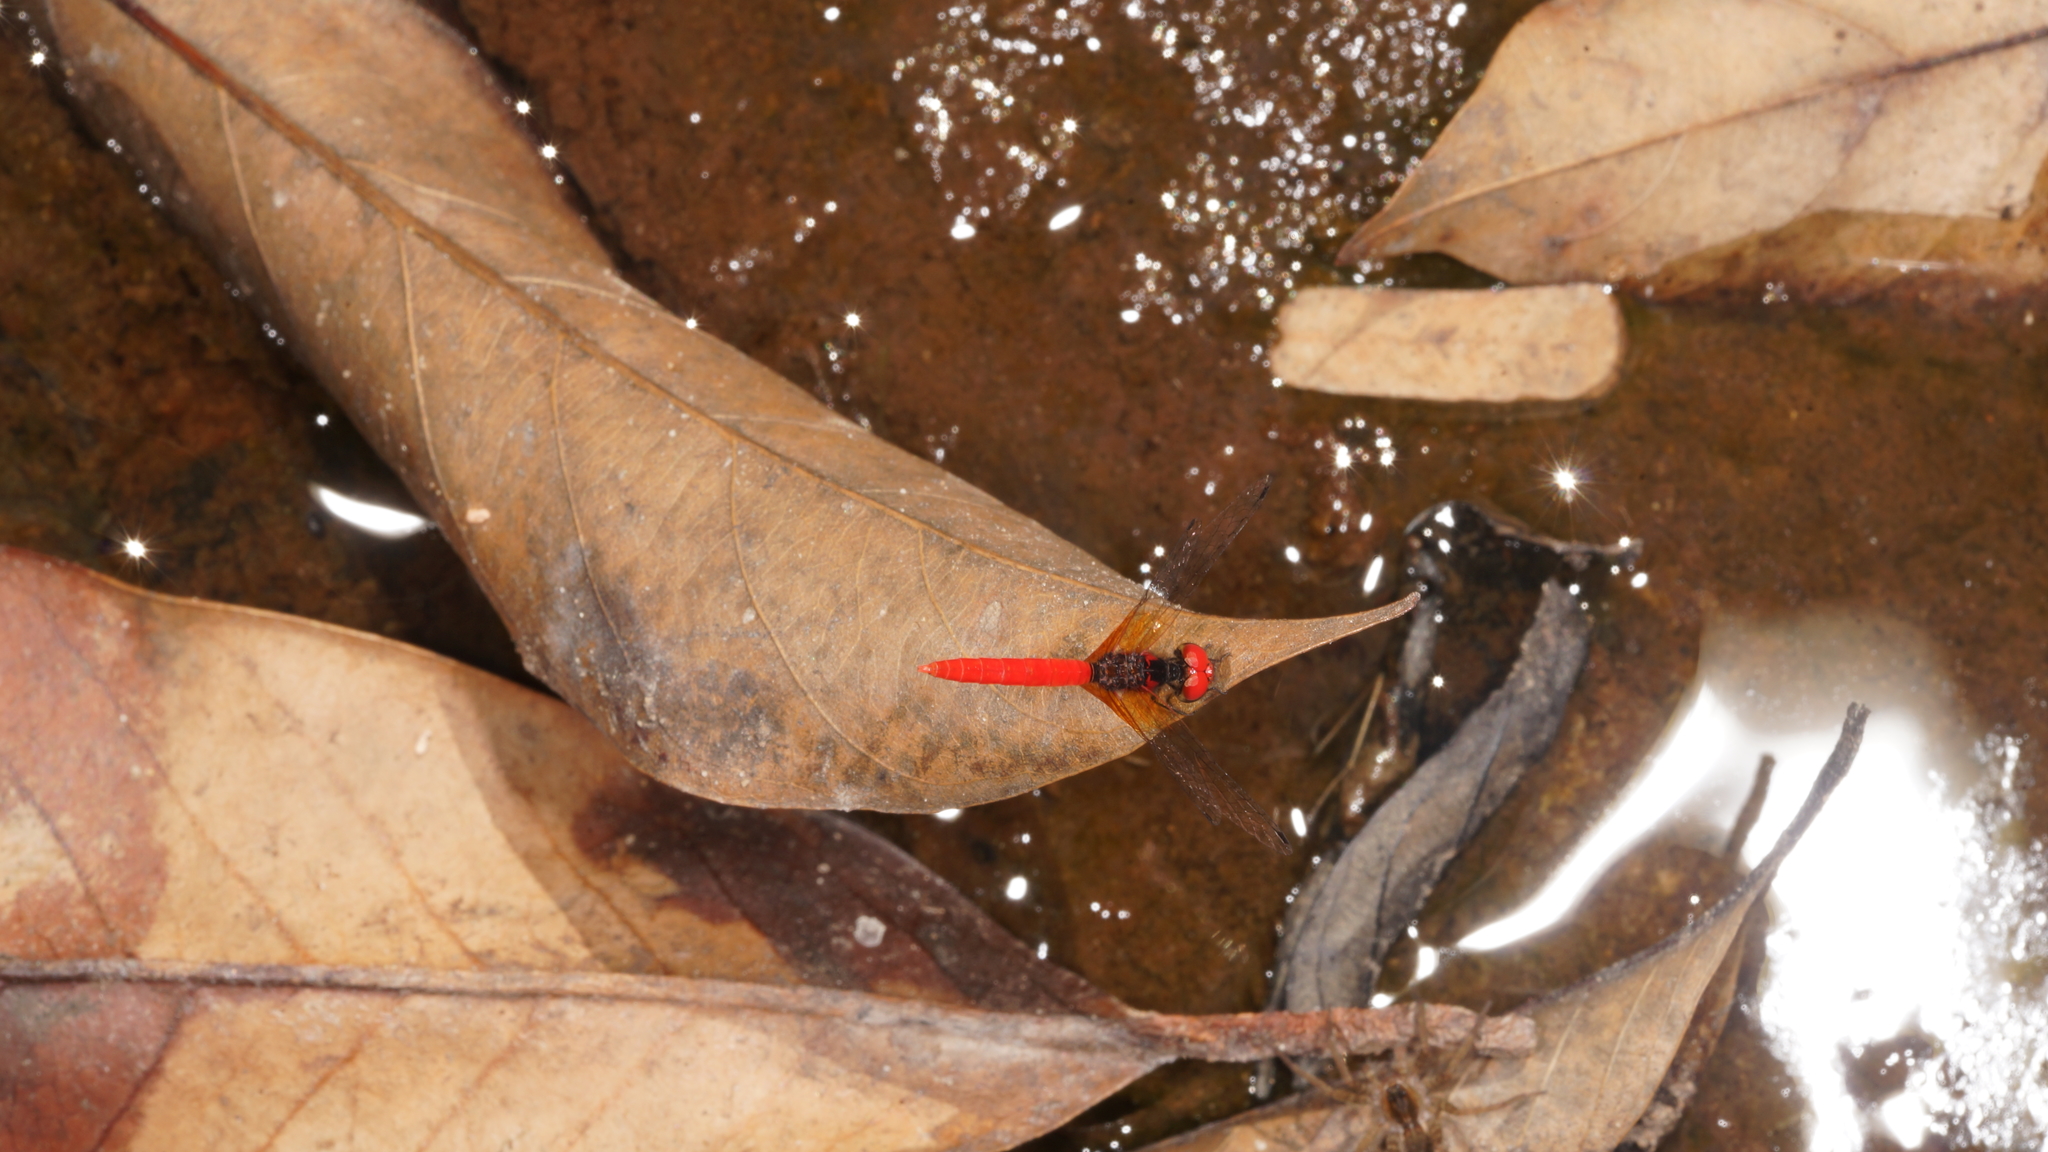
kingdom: Animalia
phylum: Arthropoda
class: Insecta
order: Odonata
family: Libellulidae
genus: Nannophya
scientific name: Nannophya pygmaea
